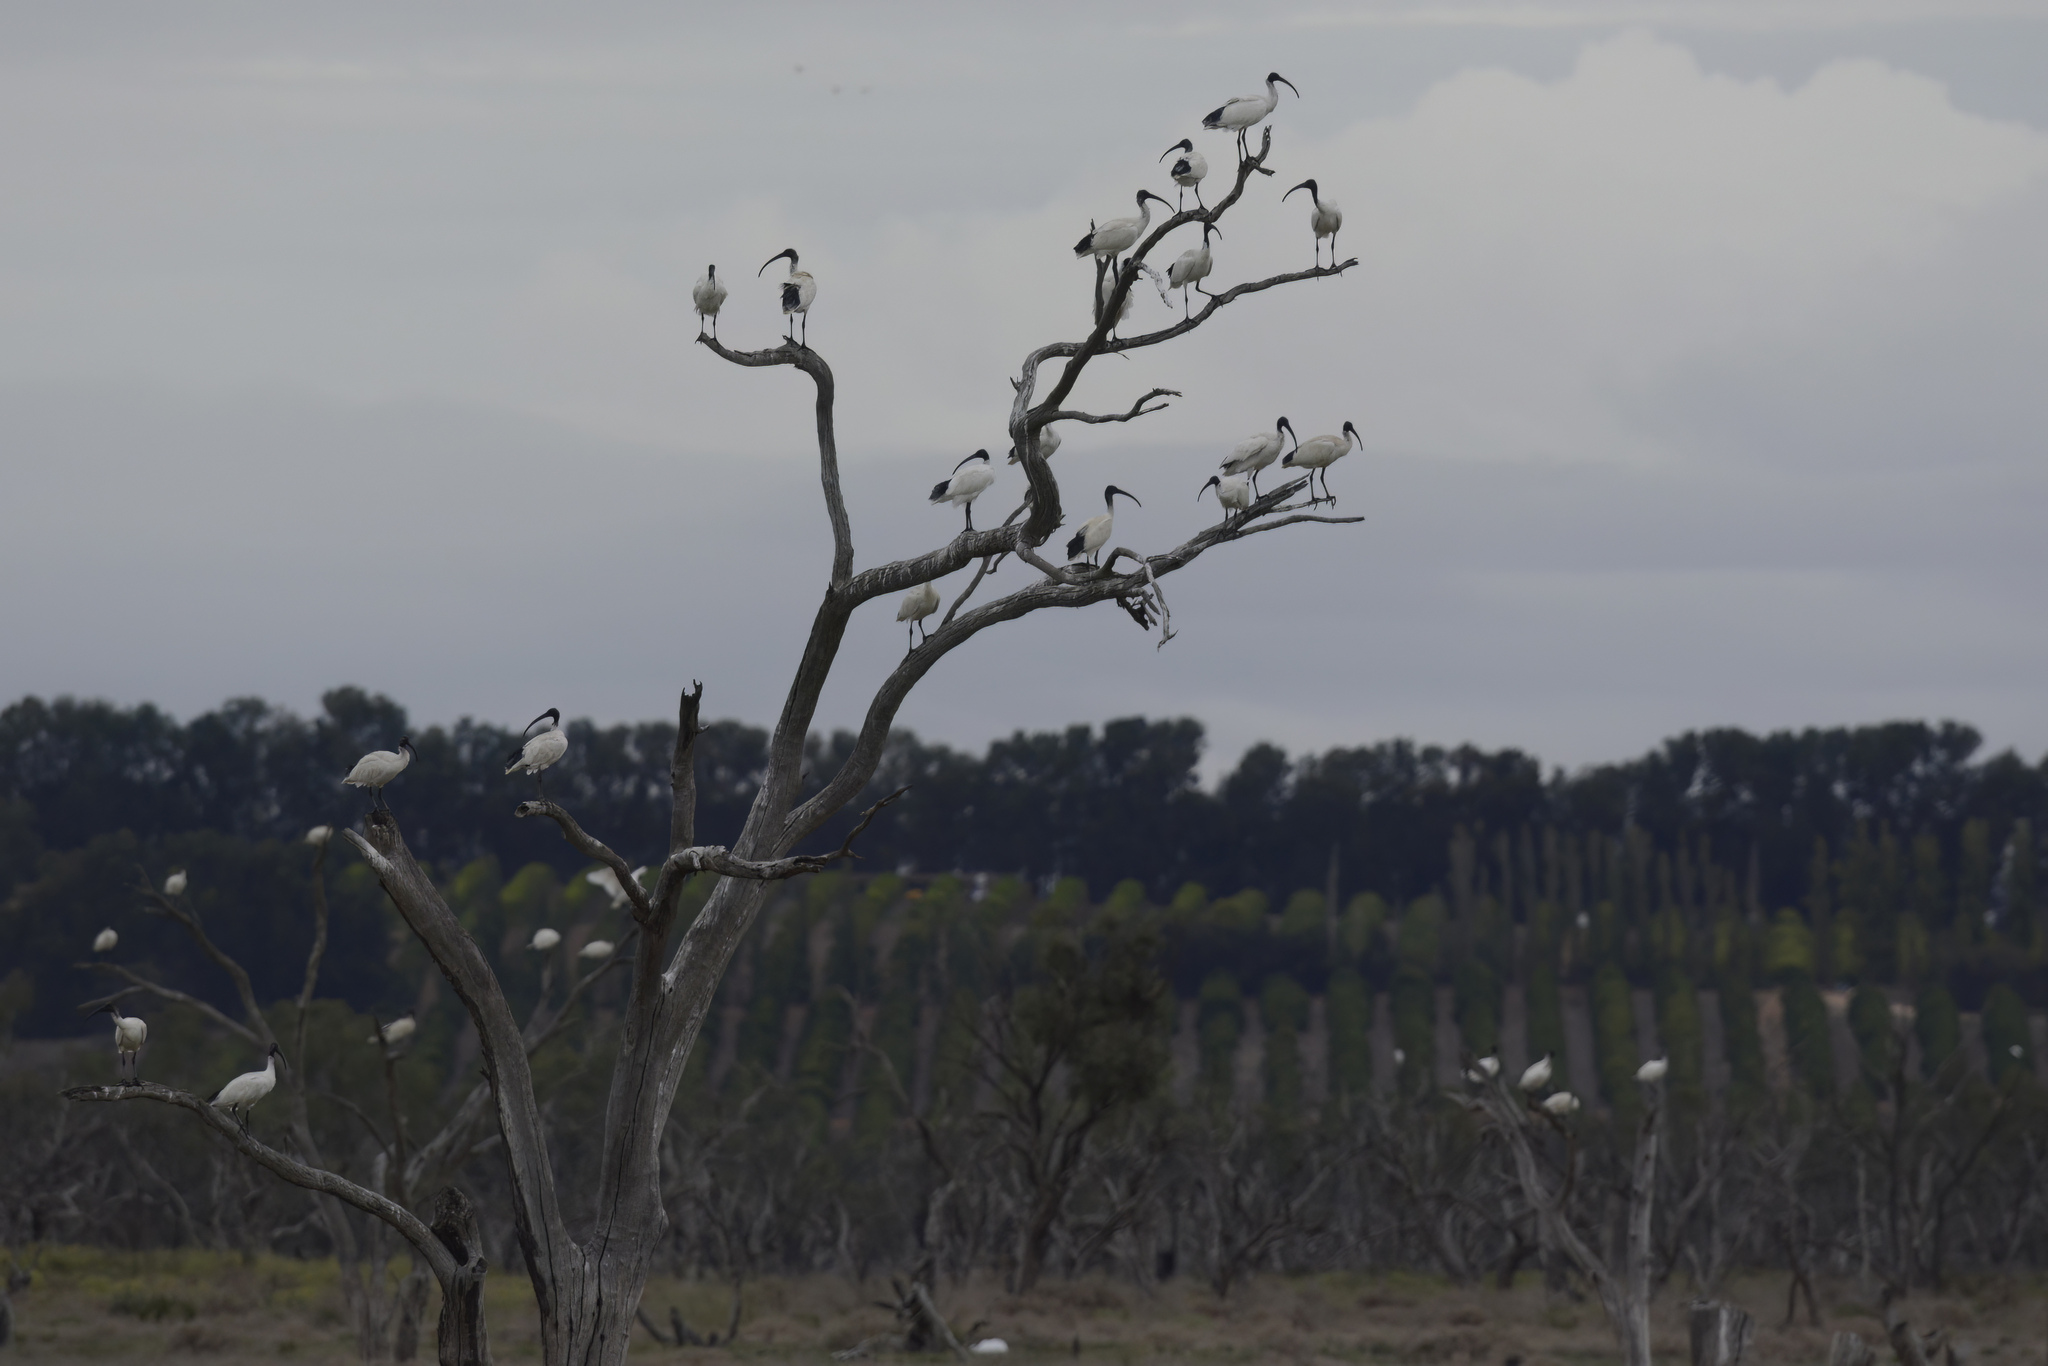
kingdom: Animalia
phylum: Chordata
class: Aves
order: Pelecaniformes
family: Threskiornithidae
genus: Threskiornis
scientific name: Threskiornis molucca
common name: Australian white ibis
